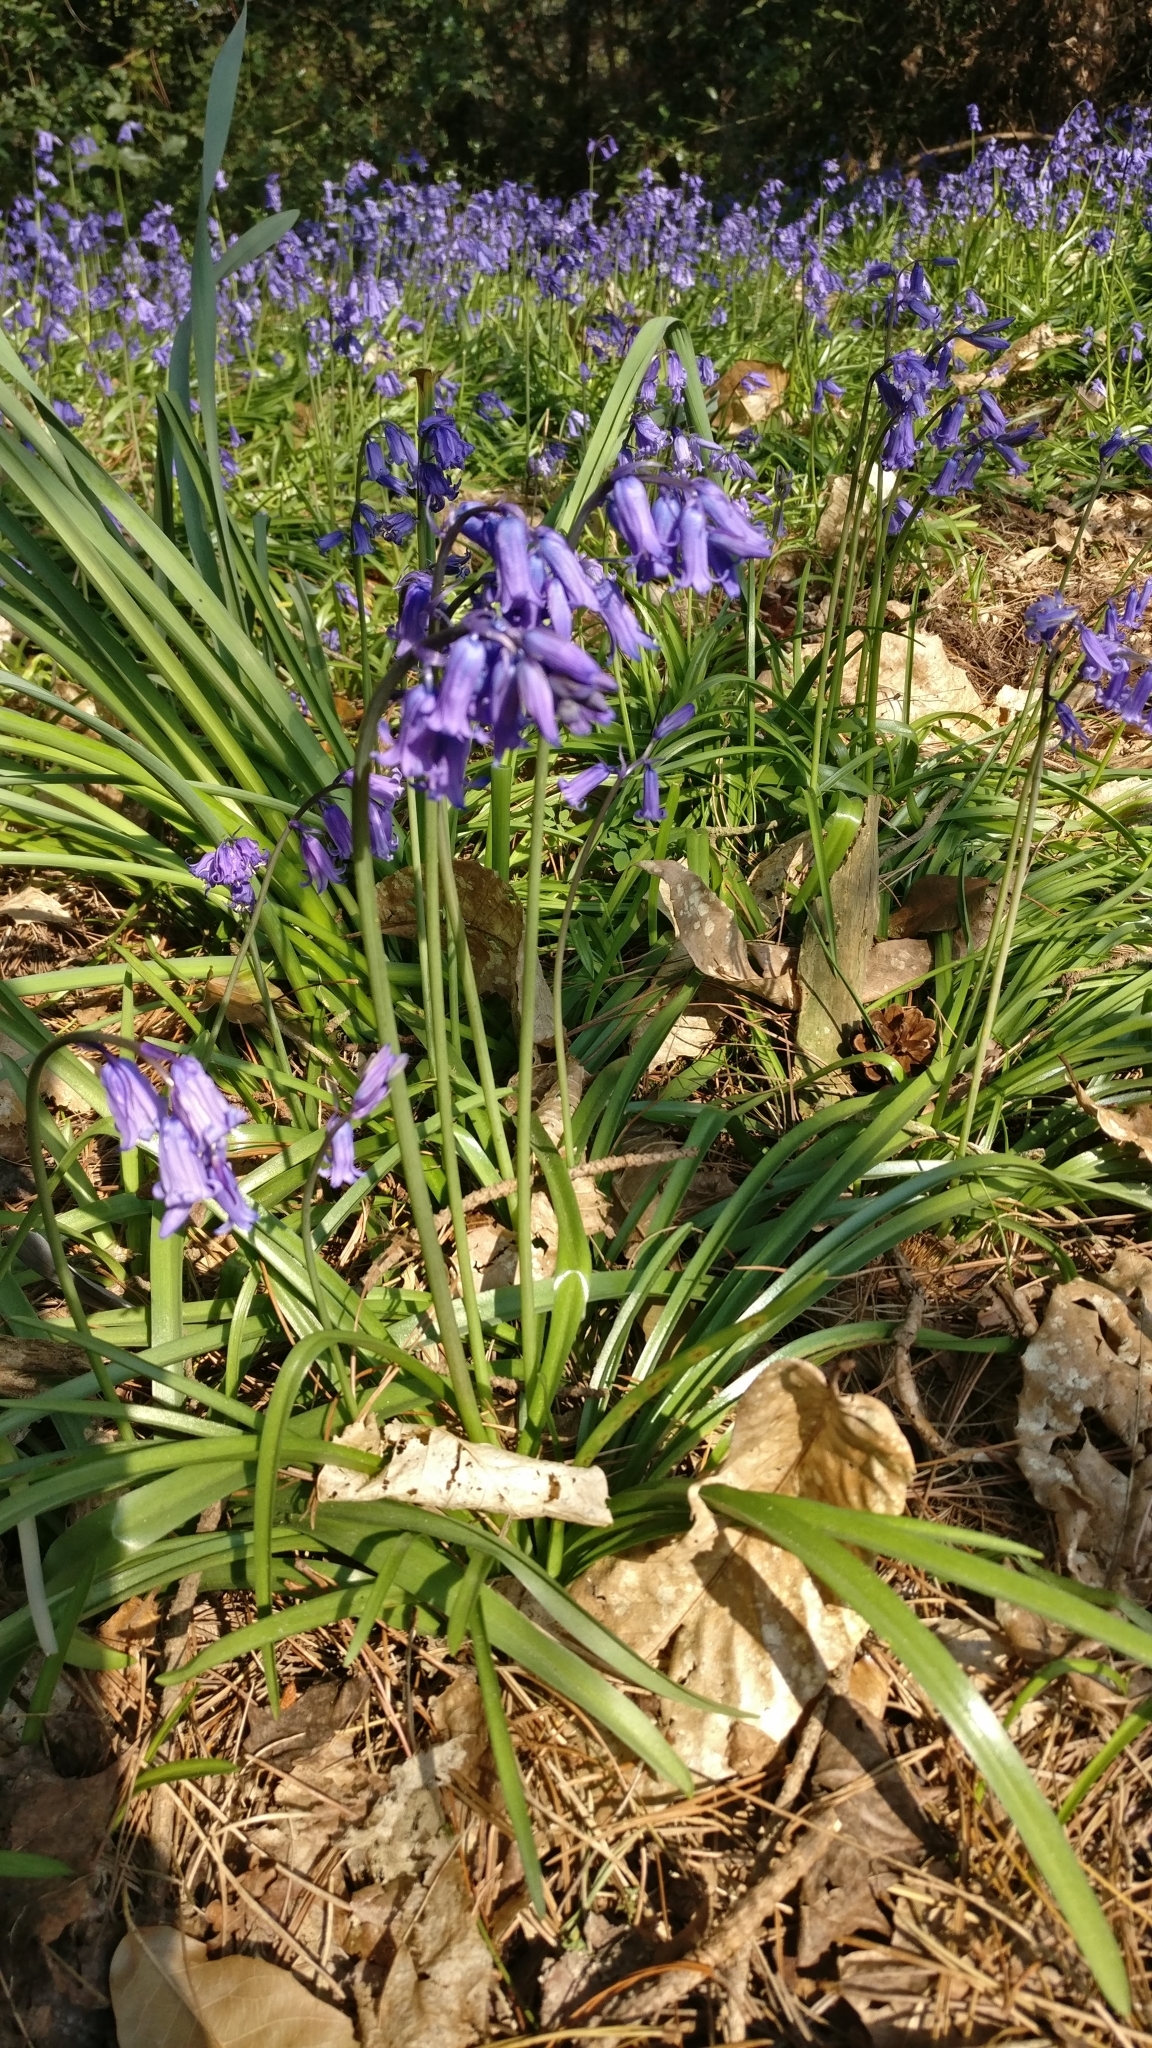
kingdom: Plantae
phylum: Tracheophyta
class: Liliopsida
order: Asparagales
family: Asparagaceae
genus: Hyacinthoides
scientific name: Hyacinthoides non-scripta
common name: Bluebell
